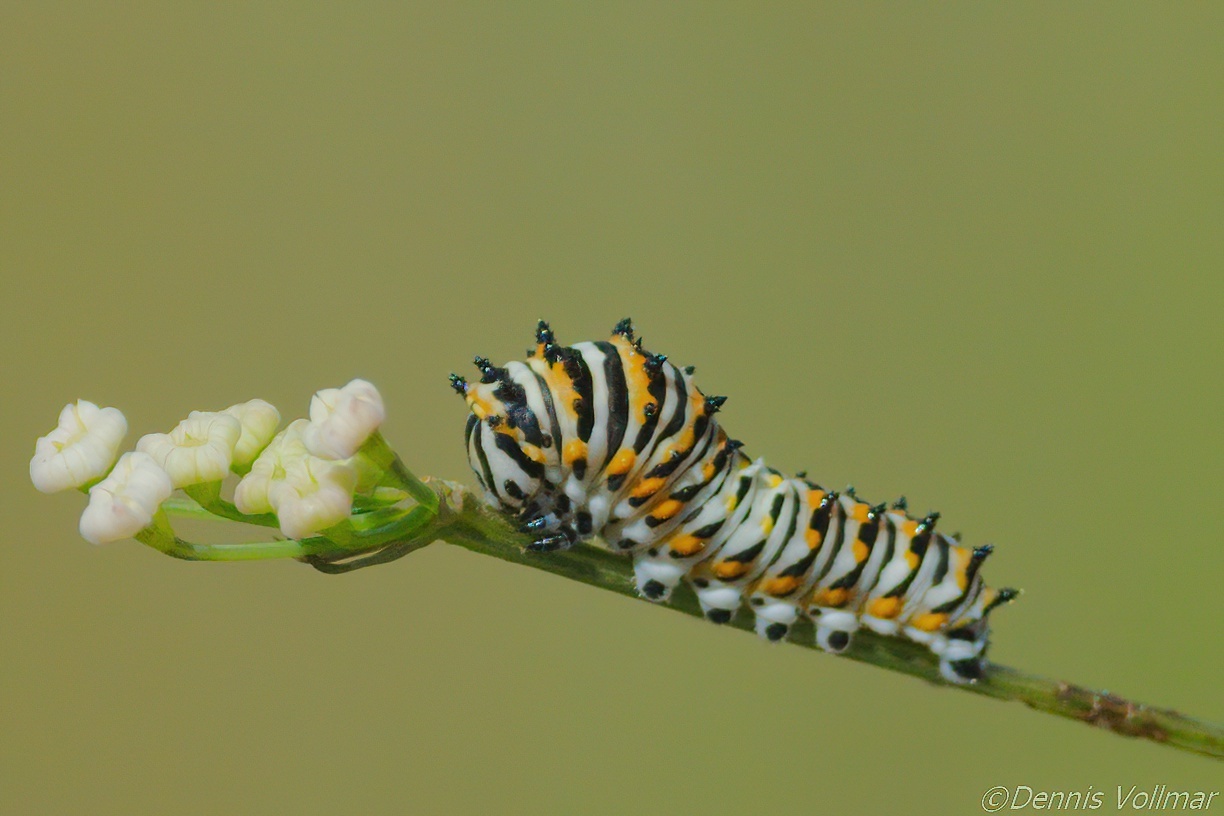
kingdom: Animalia
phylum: Arthropoda
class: Insecta
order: Lepidoptera
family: Papilionidae
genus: Papilio
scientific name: Papilio polyxenes
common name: Black swallowtail
